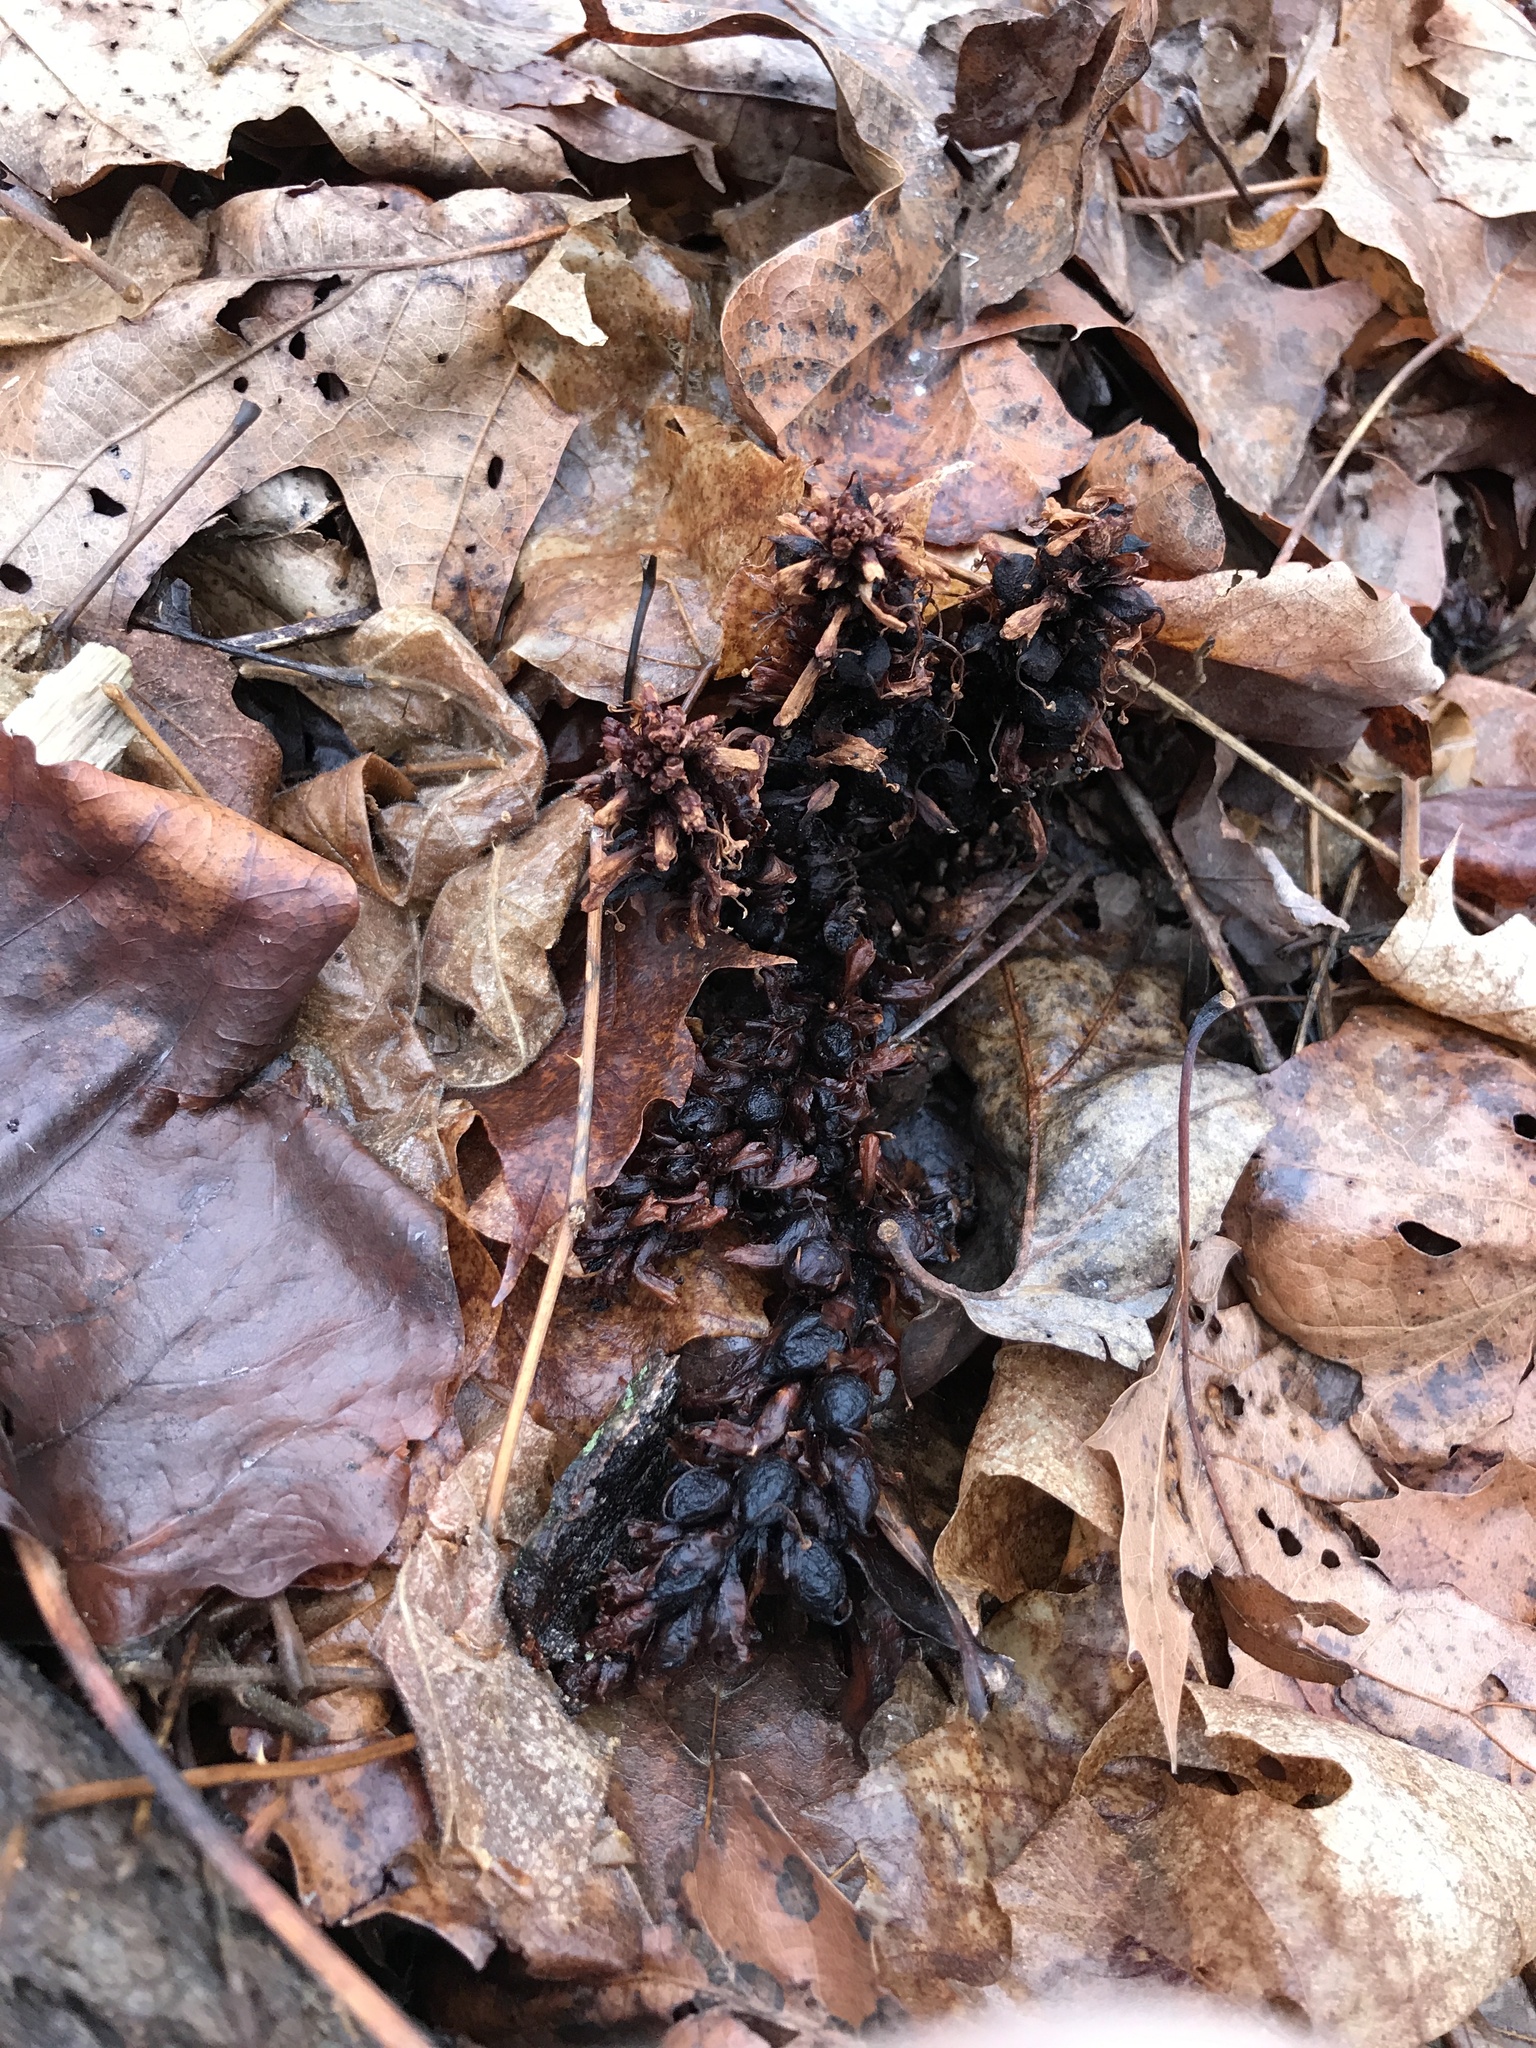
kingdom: Plantae
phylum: Tracheophyta
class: Magnoliopsida
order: Lamiales
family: Orobanchaceae
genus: Conopholis
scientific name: Conopholis americana
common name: American cancer-root
